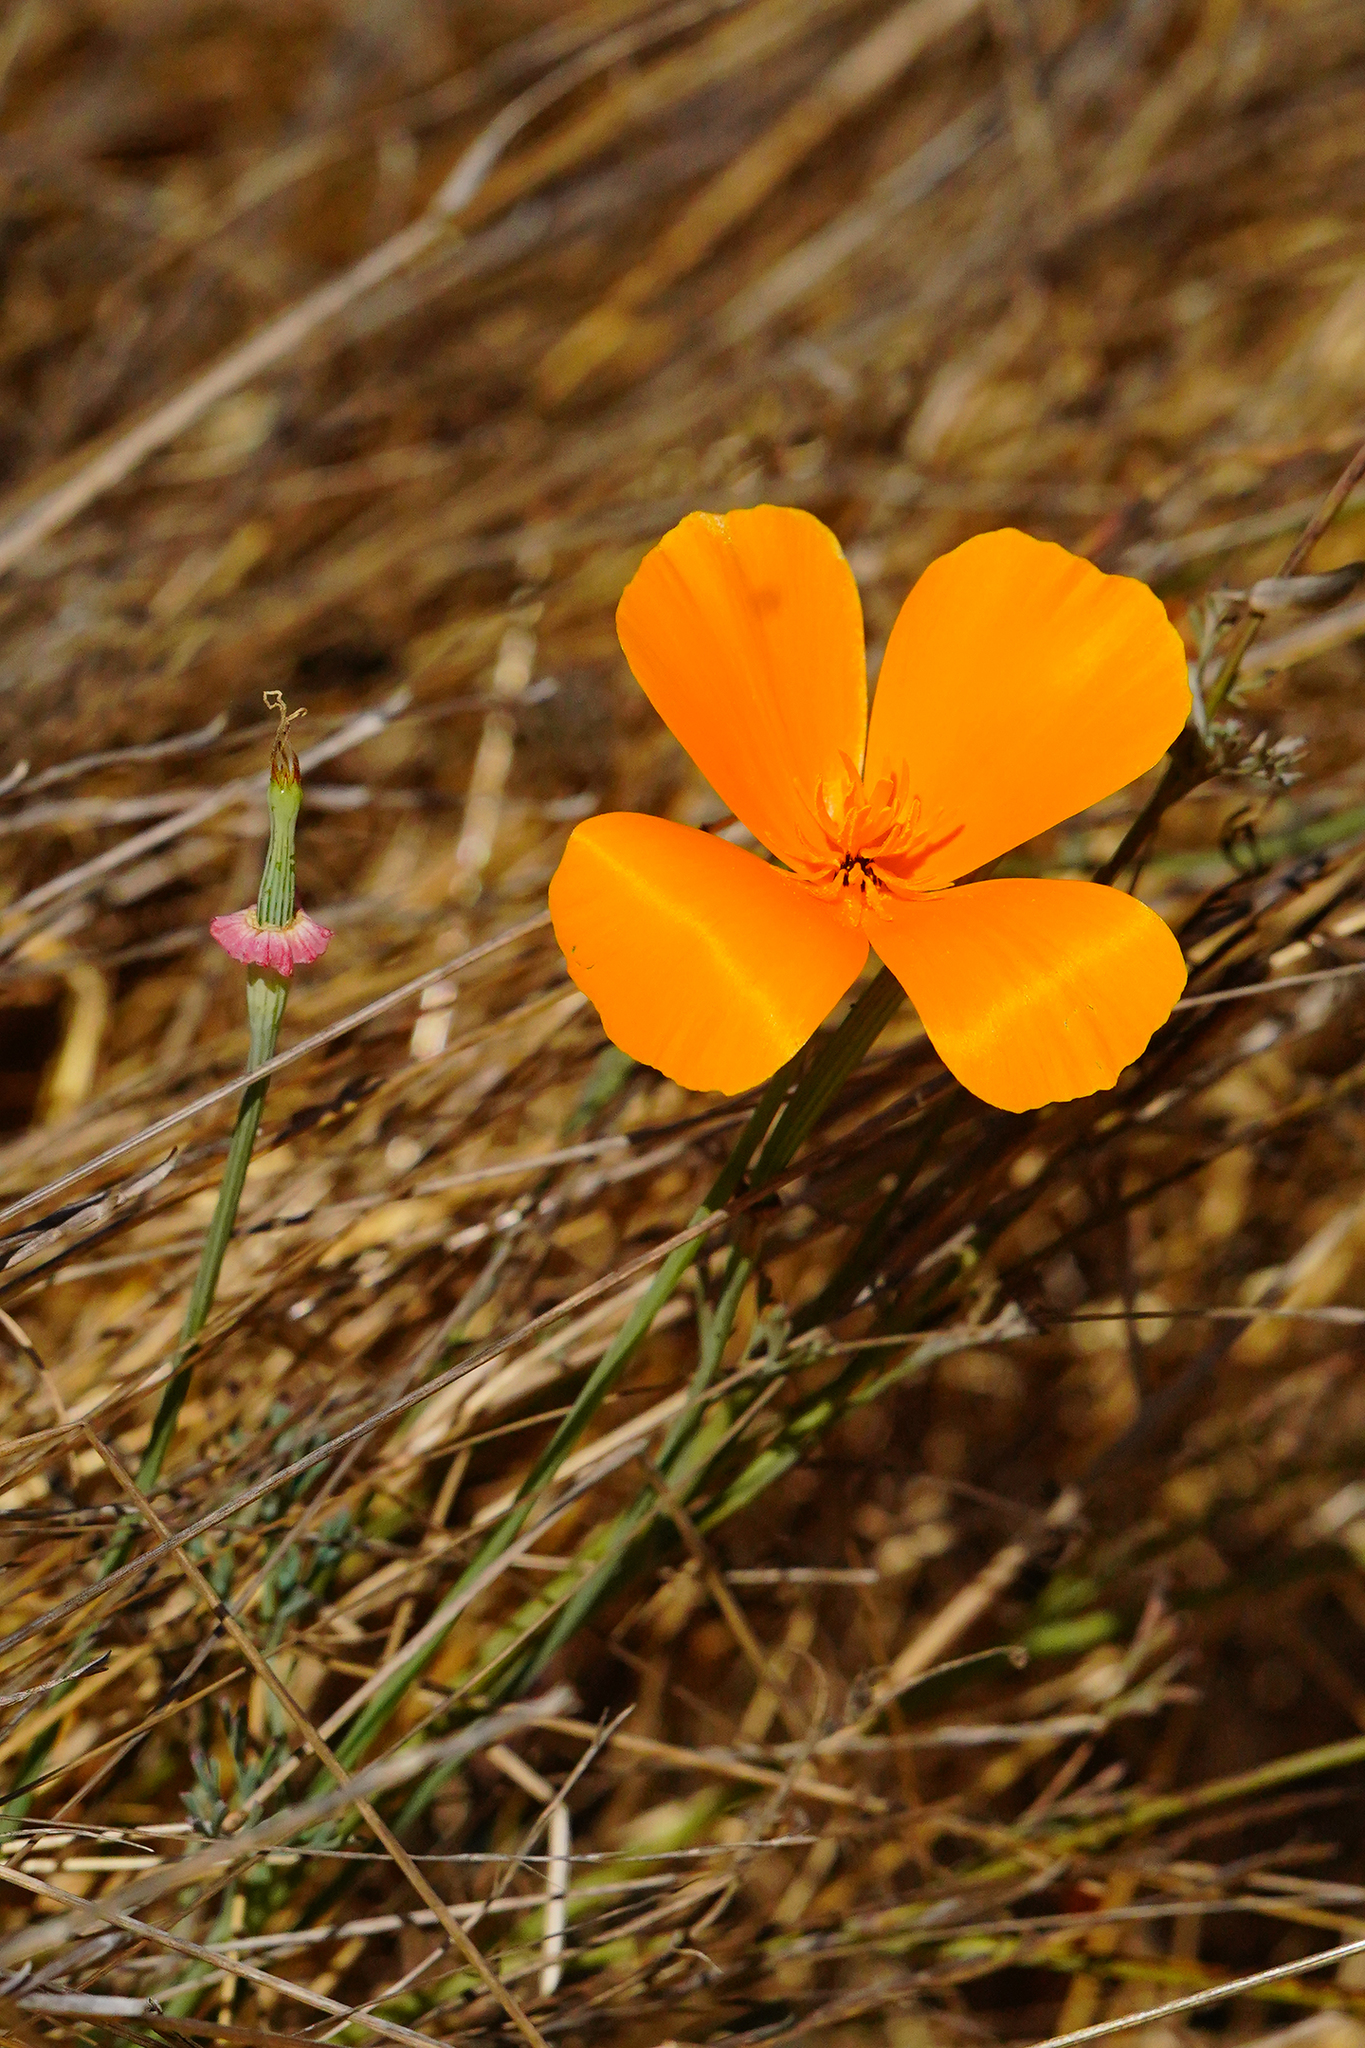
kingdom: Plantae
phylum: Tracheophyta
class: Magnoliopsida
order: Ranunculales
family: Papaveraceae
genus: Eschscholzia
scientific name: Eschscholzia californica
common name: California poppy
